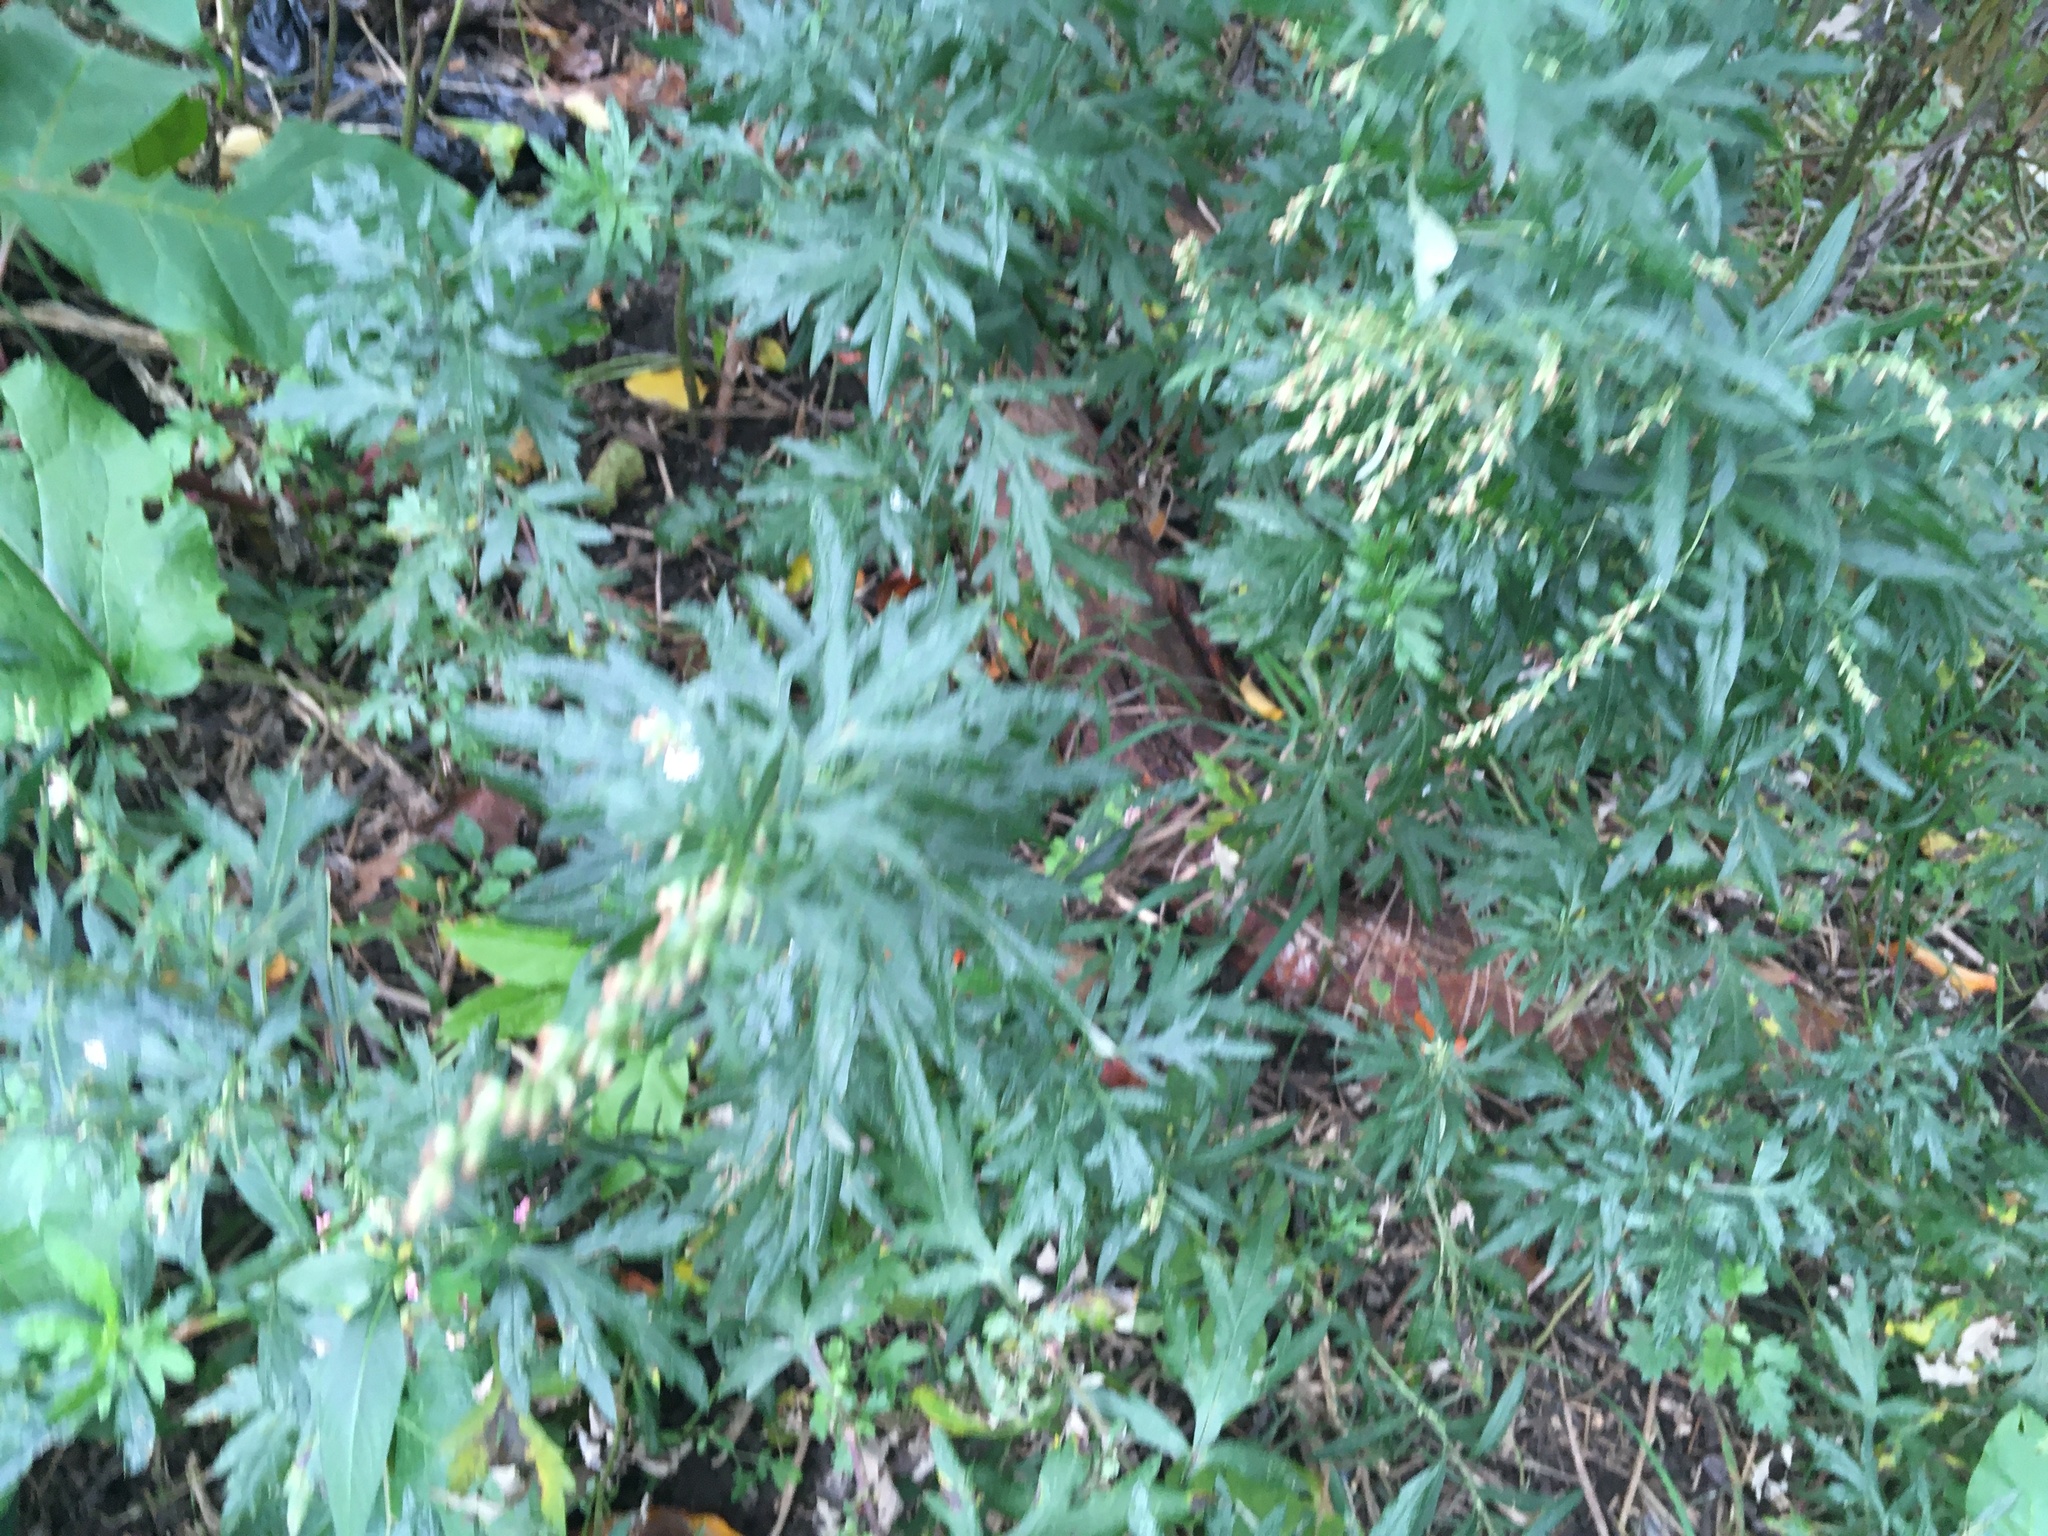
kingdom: Plantae
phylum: Tracheophyta
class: Magnoliopsida
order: Asterales
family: Asteraceae
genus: Artemisia
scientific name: Artemisia vulgaris
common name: Mugwort
